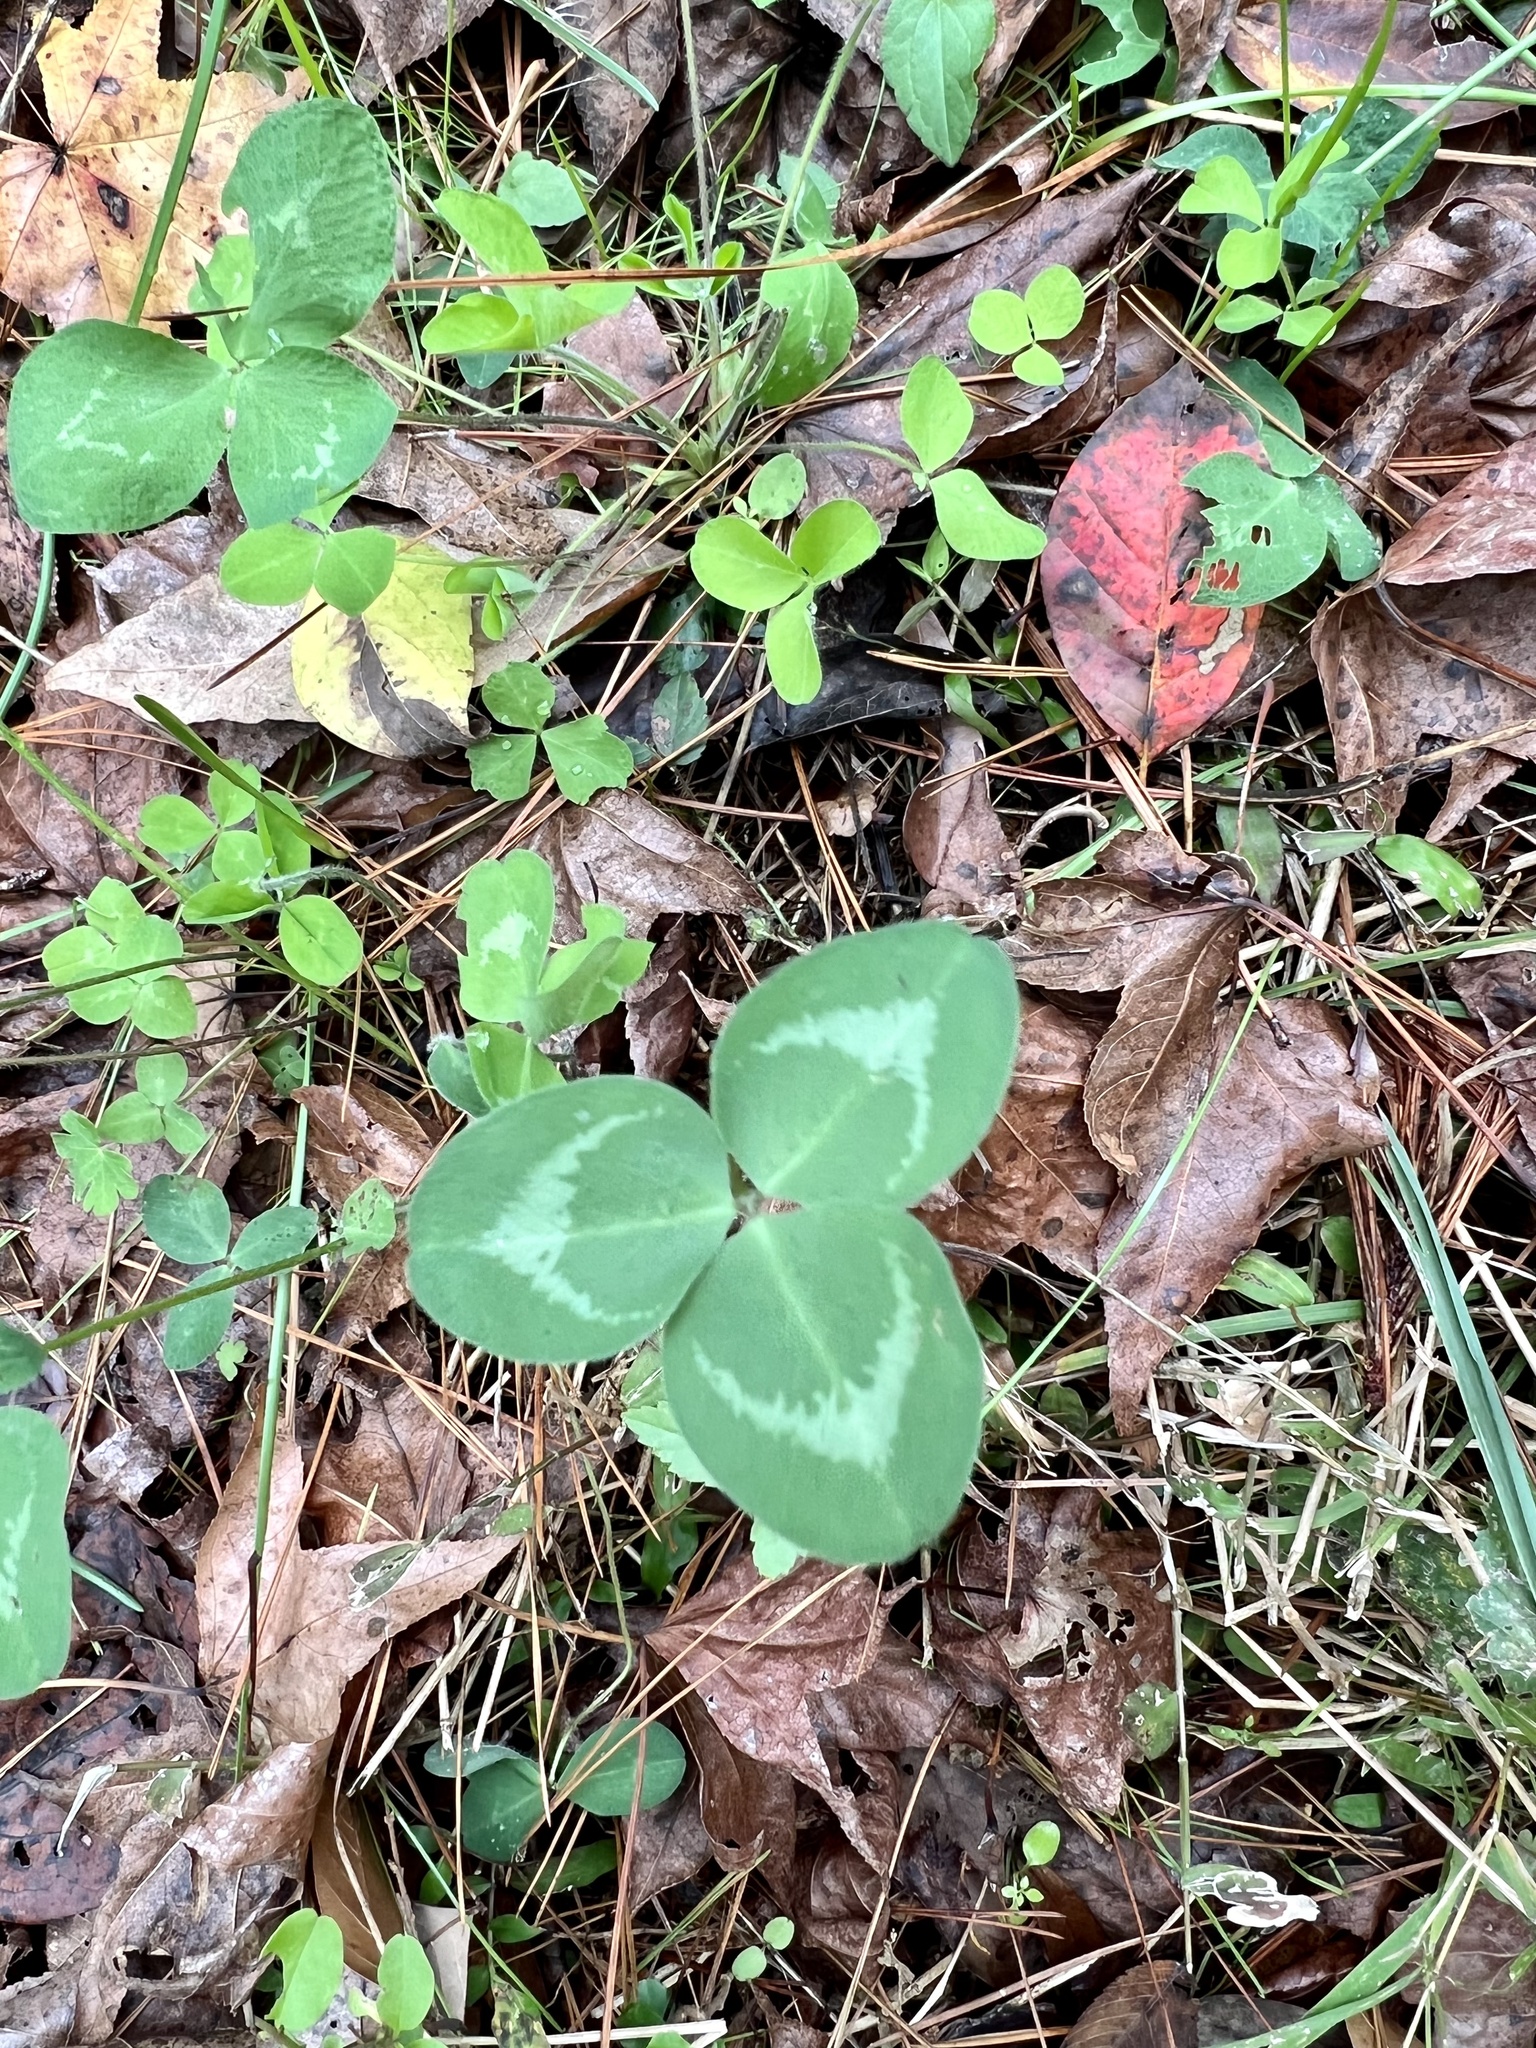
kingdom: Plantae
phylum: Tracheophyta
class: Magnoliopsida
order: Fabales
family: Fabaceae
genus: Trifolium
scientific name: Trifolium repens
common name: White clover
